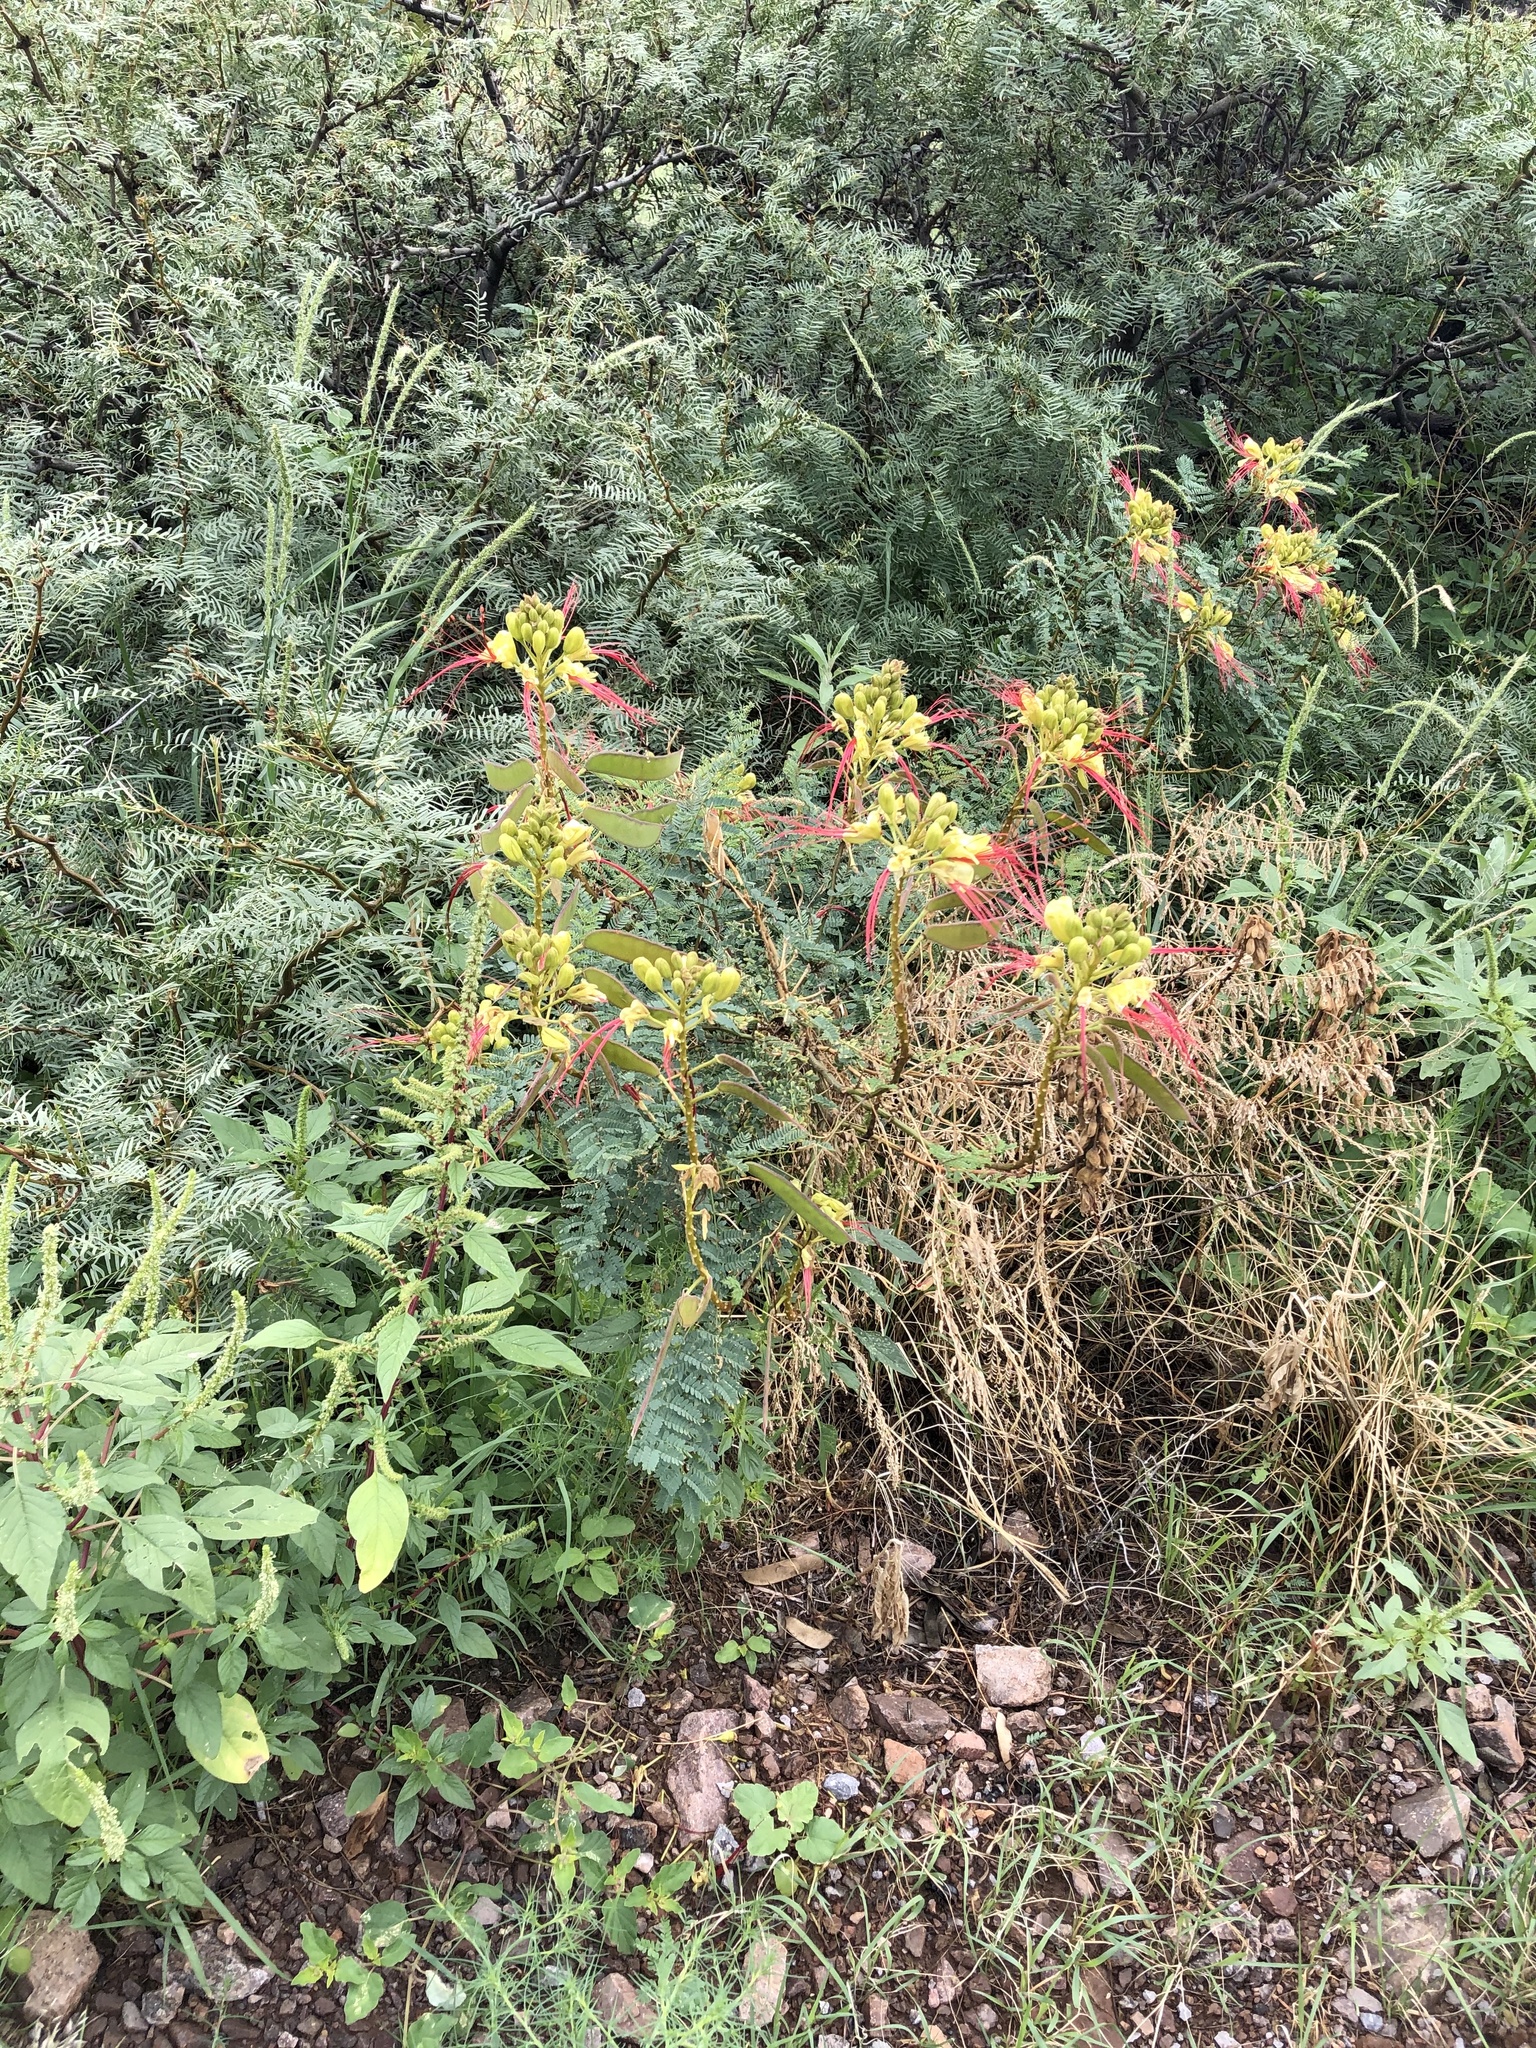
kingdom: Plantae
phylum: Tracheophyta
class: Magnoliopsida
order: Fabales
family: Fabaceae
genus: Erythrostemon
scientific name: Erythrostemon gilliesii
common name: Bird-of-paradise shrub
